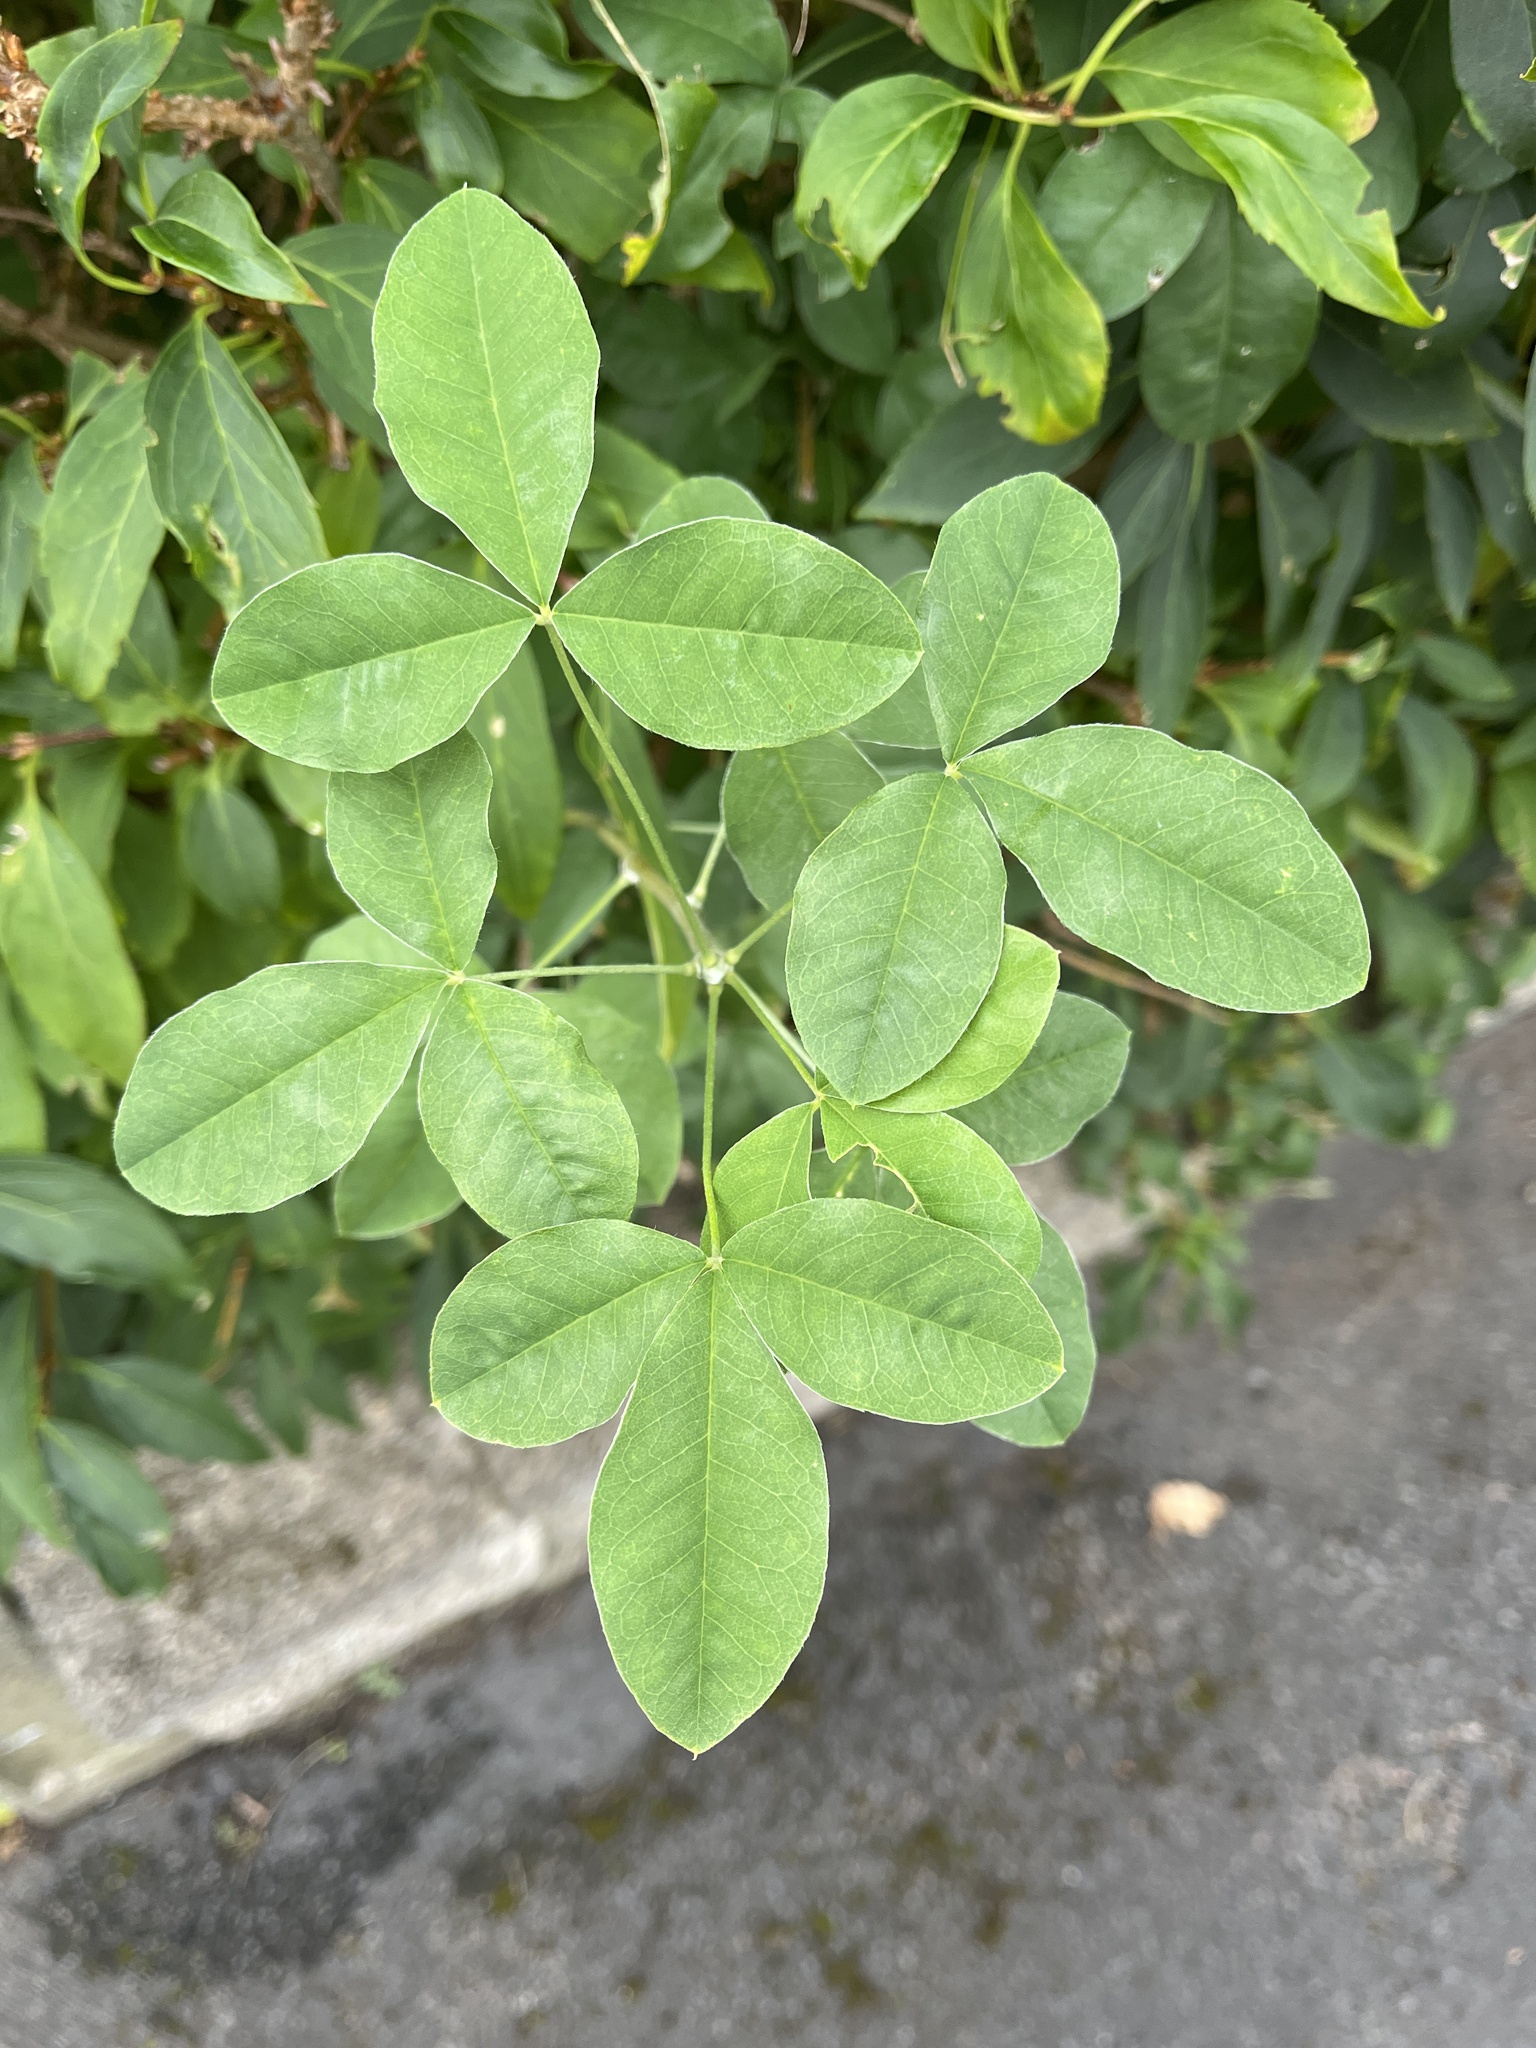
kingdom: Plantae
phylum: Tracheophyta
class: Magnoliopsida
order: Fabales
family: Fabaceae
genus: Laburnum
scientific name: Laburnum anagyroides
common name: Laburnum
